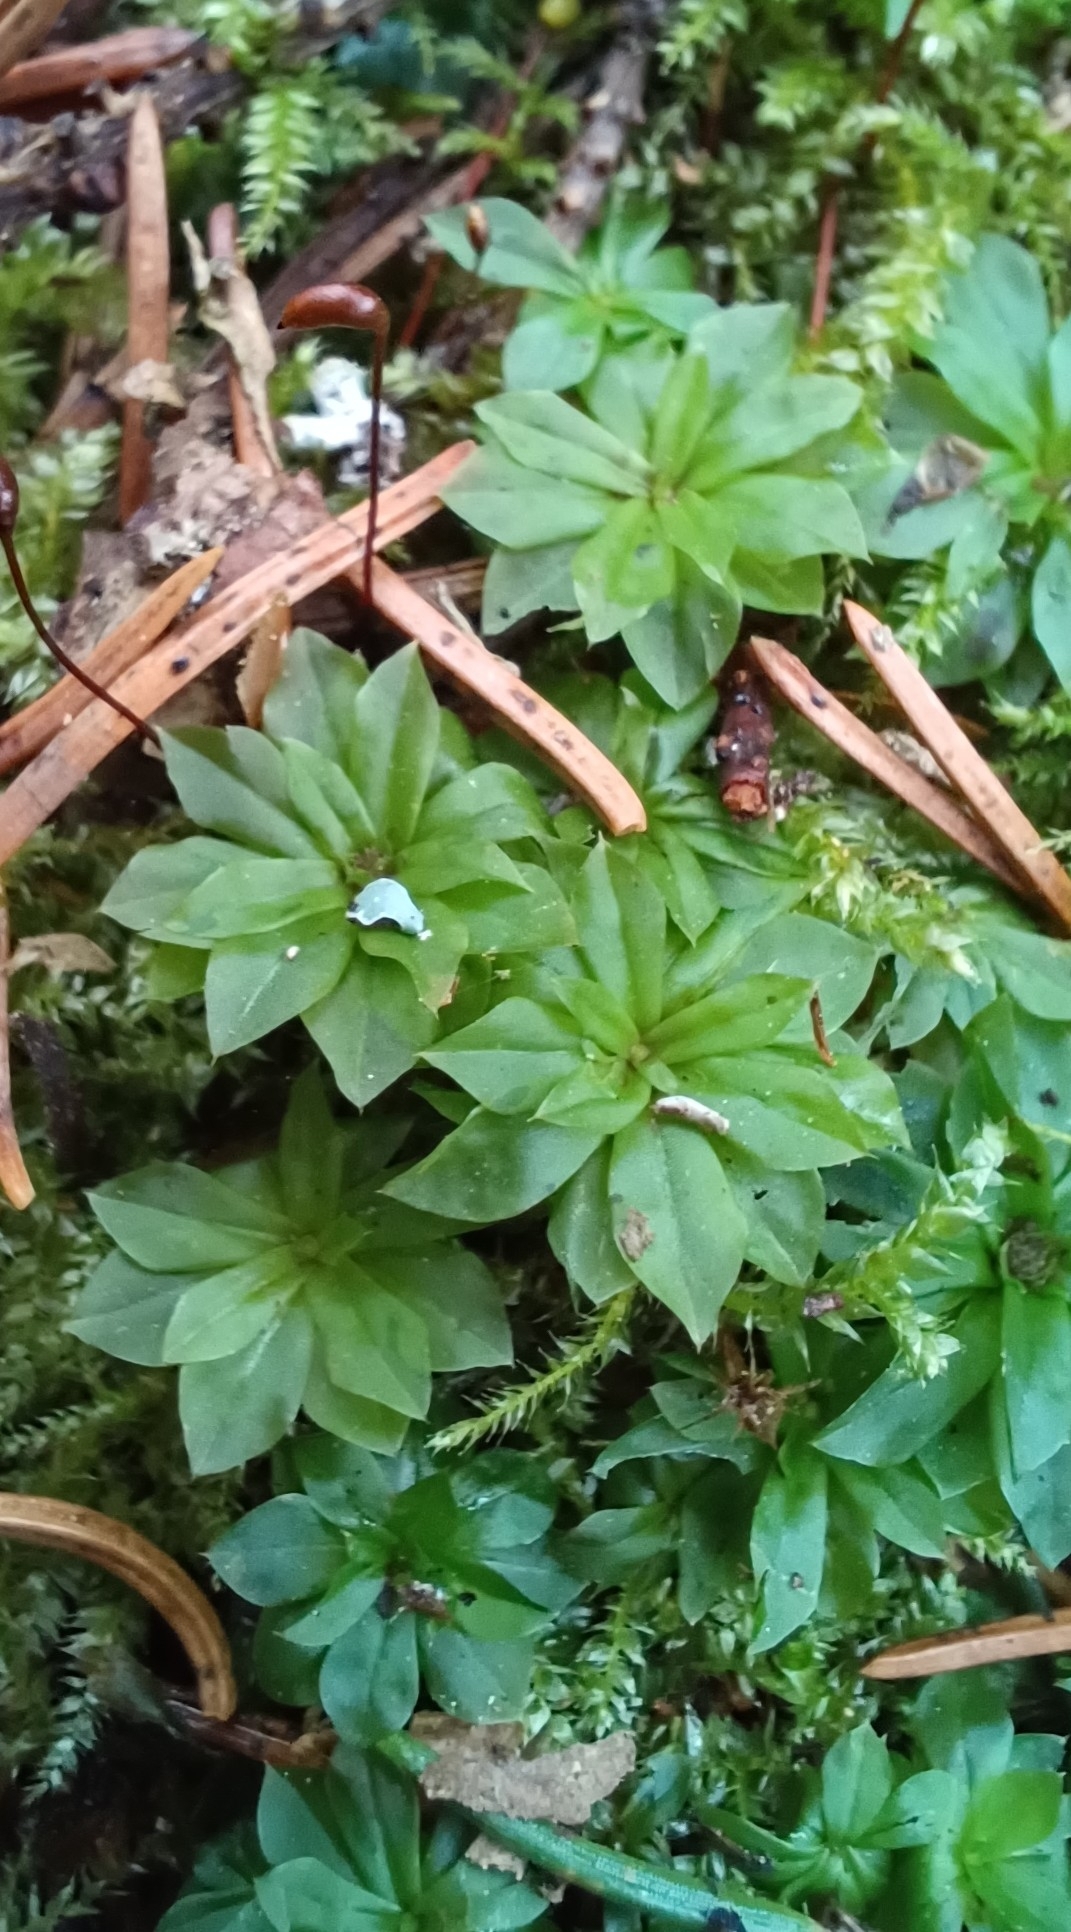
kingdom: Plantae
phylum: Bryophyta
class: Bryopsida
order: Bryales
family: Bryaceae
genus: Rhodobryum
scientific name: Rhodobryum roseum
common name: Rose-moss
